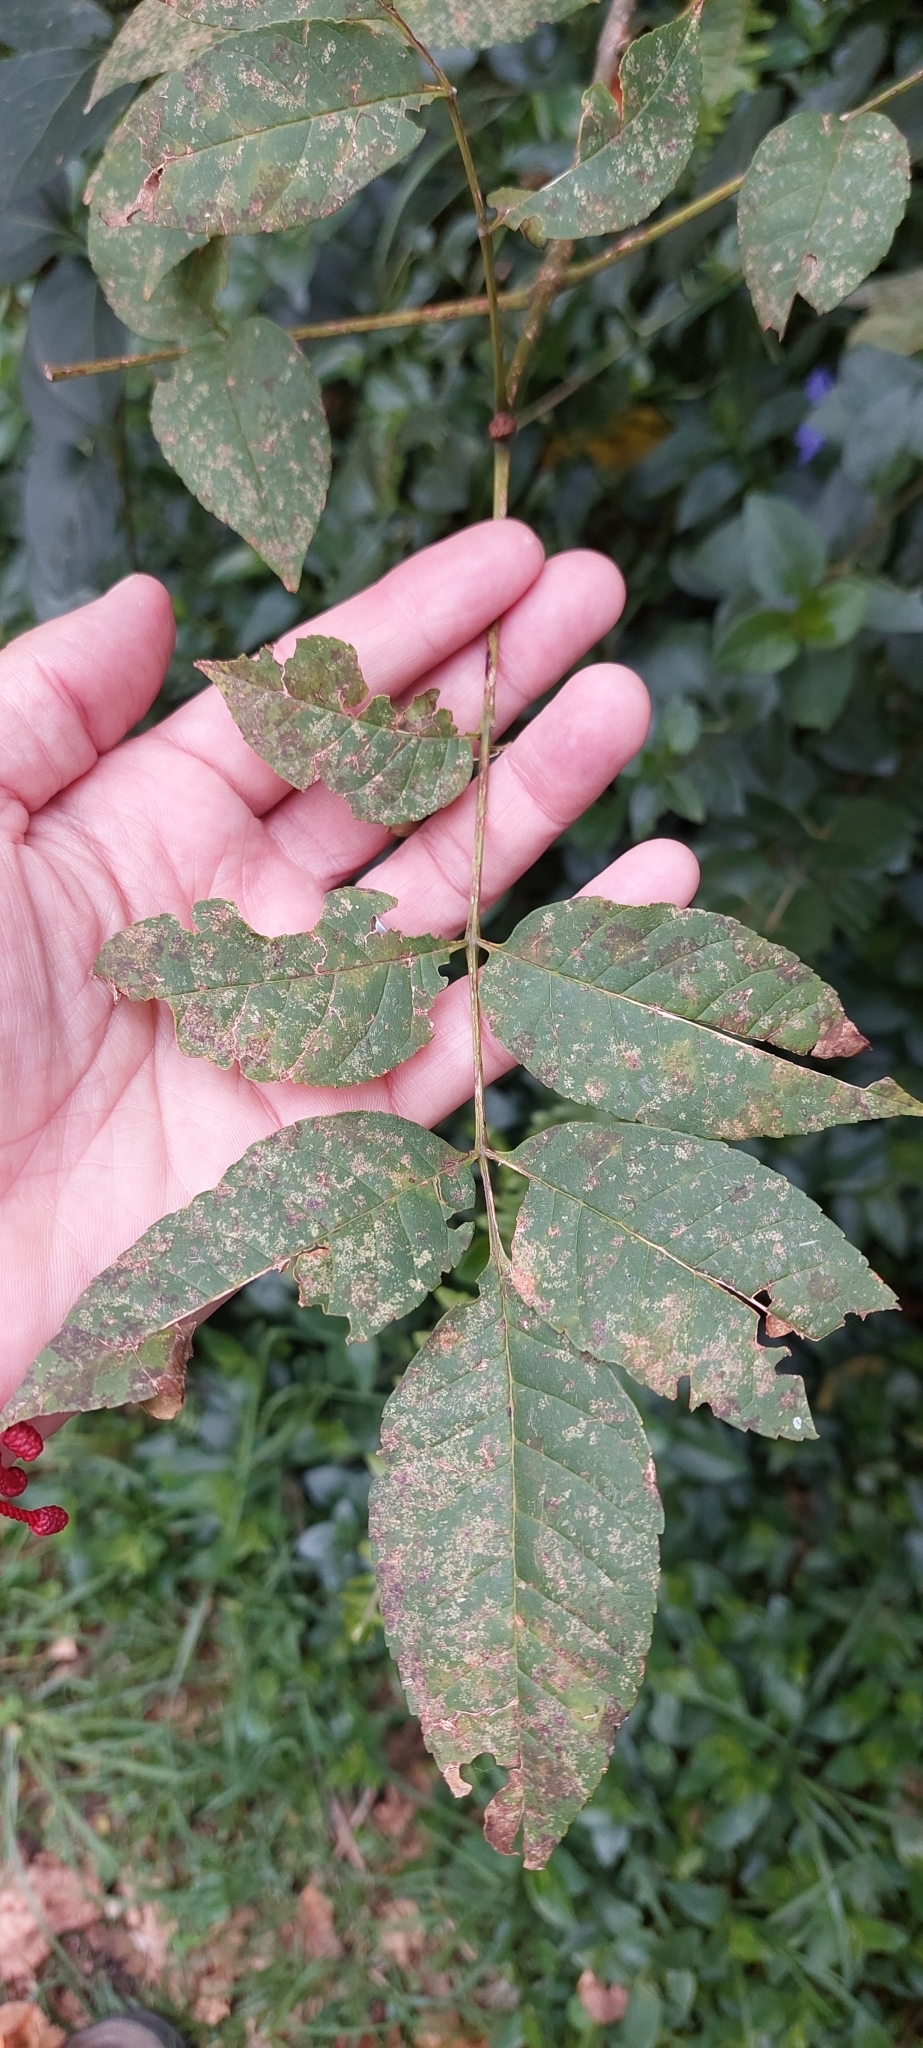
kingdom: Plantae
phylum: Tracheophyta
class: Magnoliopsida
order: Lamiales
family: Oleaceae
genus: Fraxinus
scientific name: Fraxinus uhdei
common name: Shamel ash
